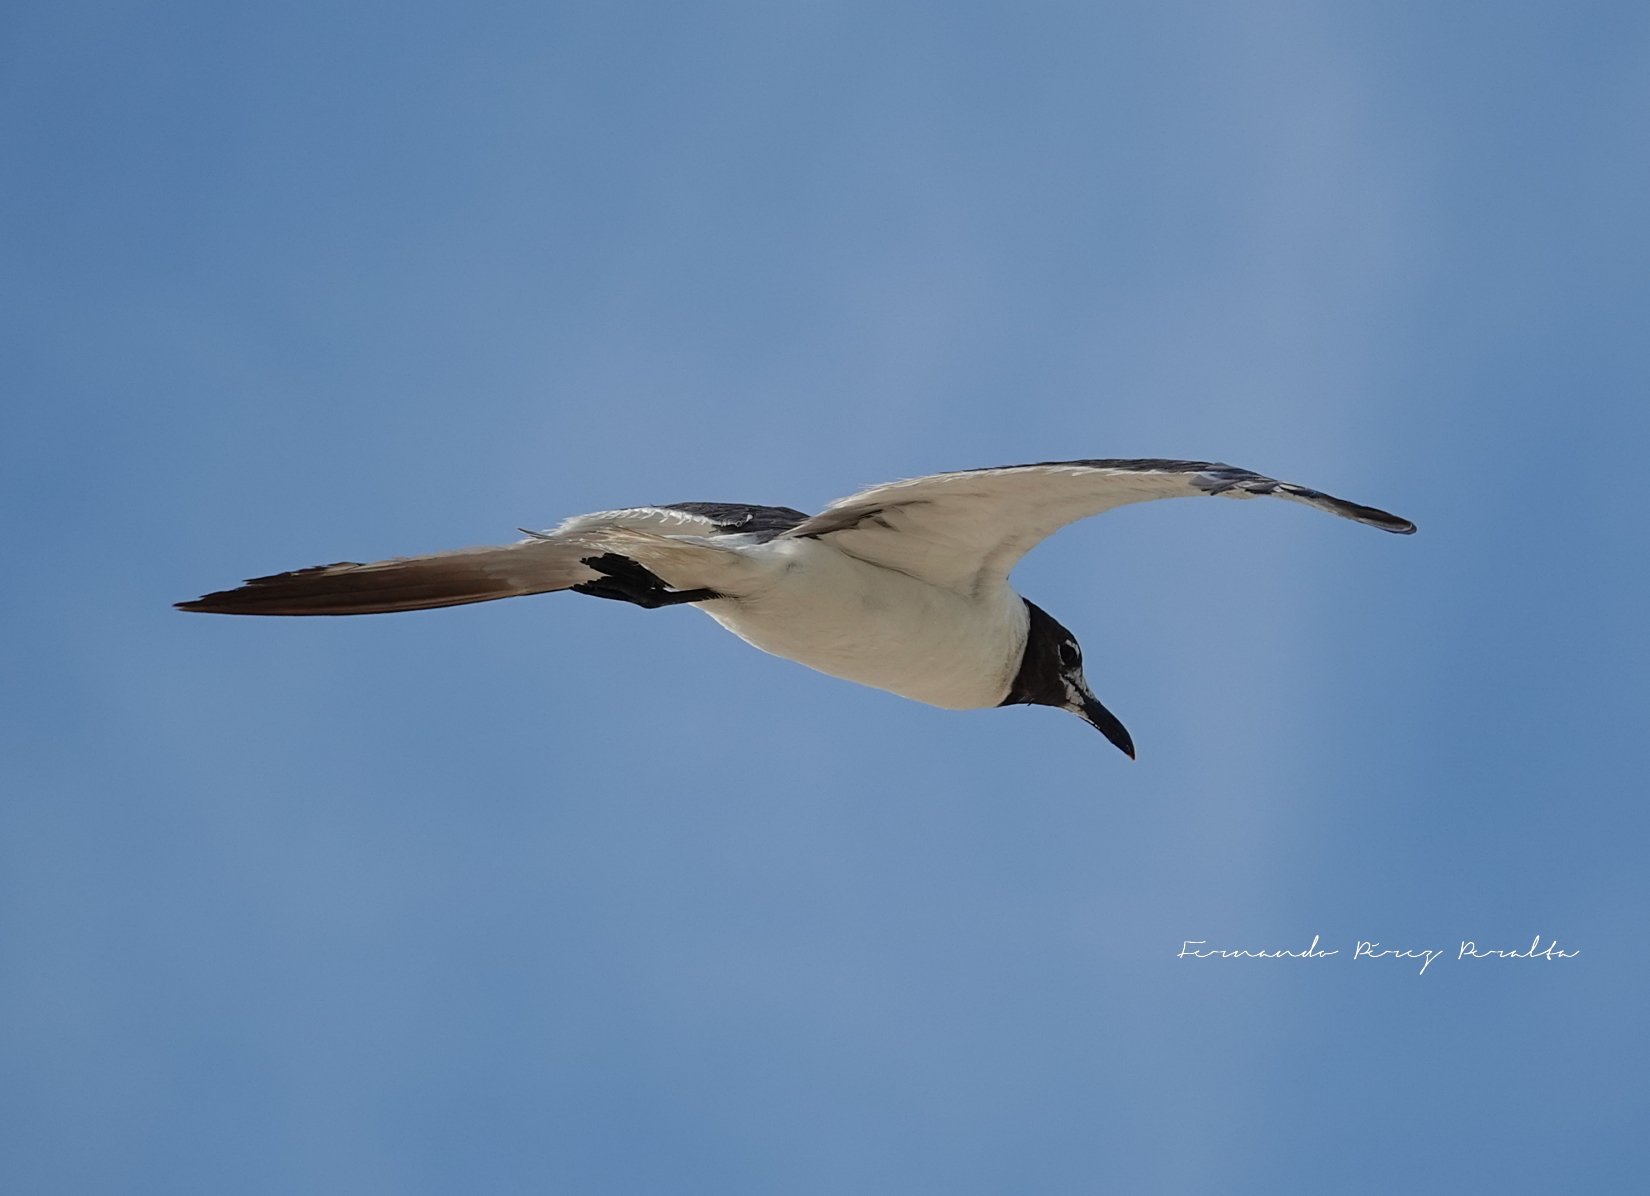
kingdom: Animalia
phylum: Chordata
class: Aves
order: Charadriiformes
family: Laridae
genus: Leucophaeus
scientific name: Leucophaeus atricilla
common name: Laughing gull
